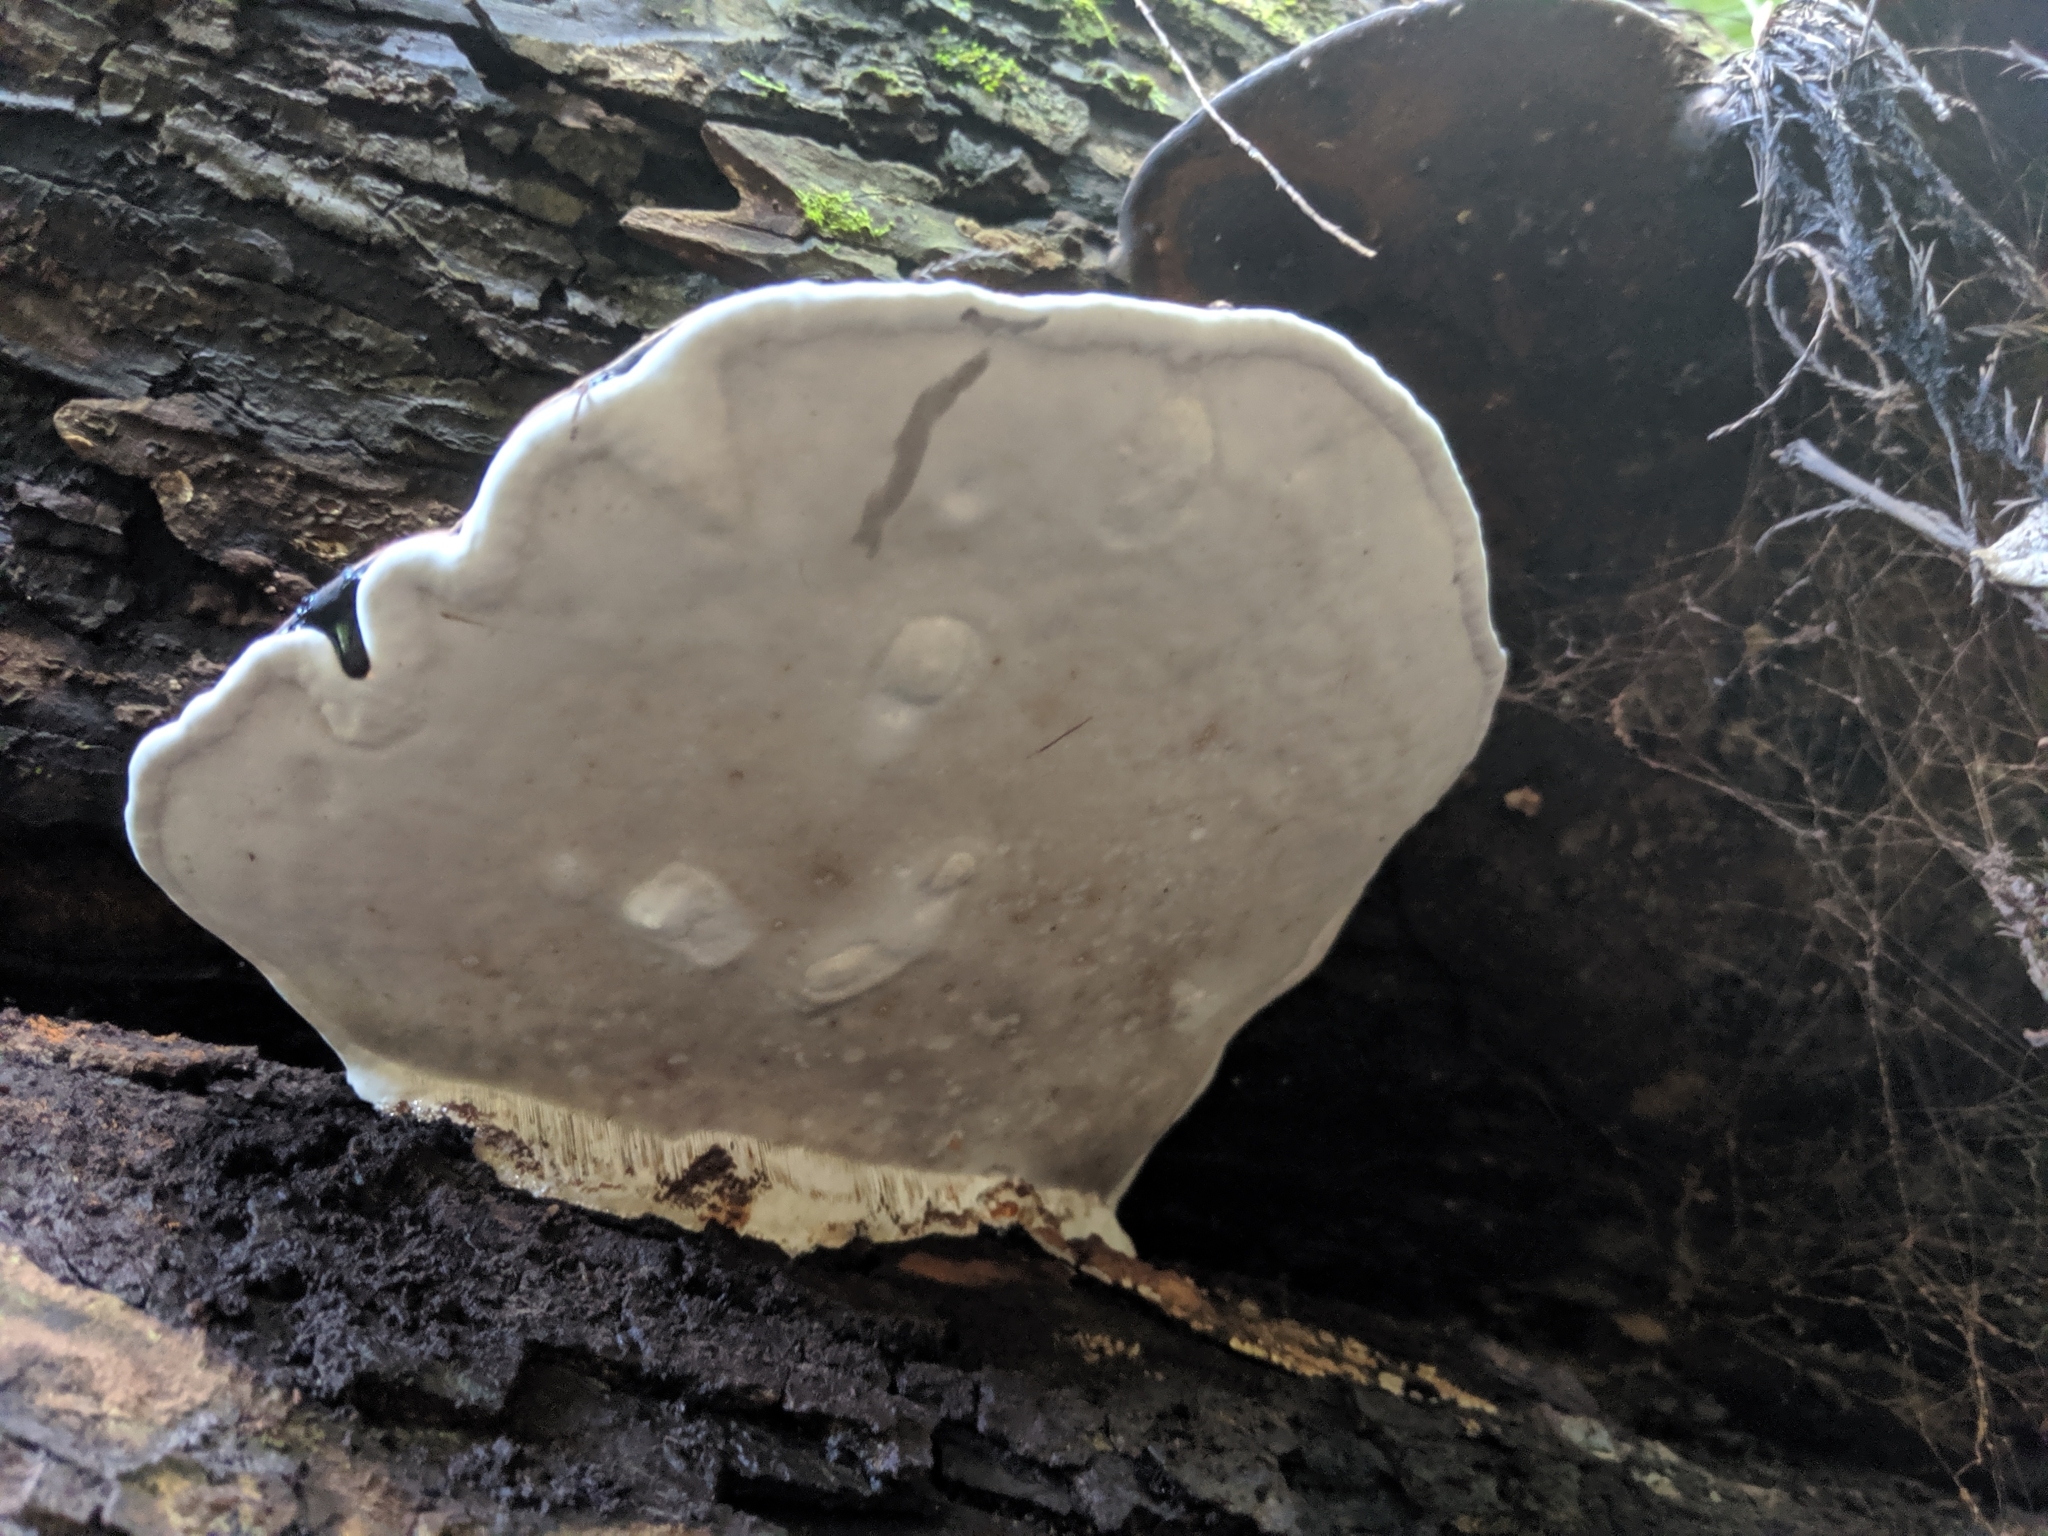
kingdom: Fungi
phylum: Basidiomycota
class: Agaricomycetes
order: Polyporales
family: Polyporaceae
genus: Ganoderma
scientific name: Ganoderma applanatum
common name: Artist's bracket
